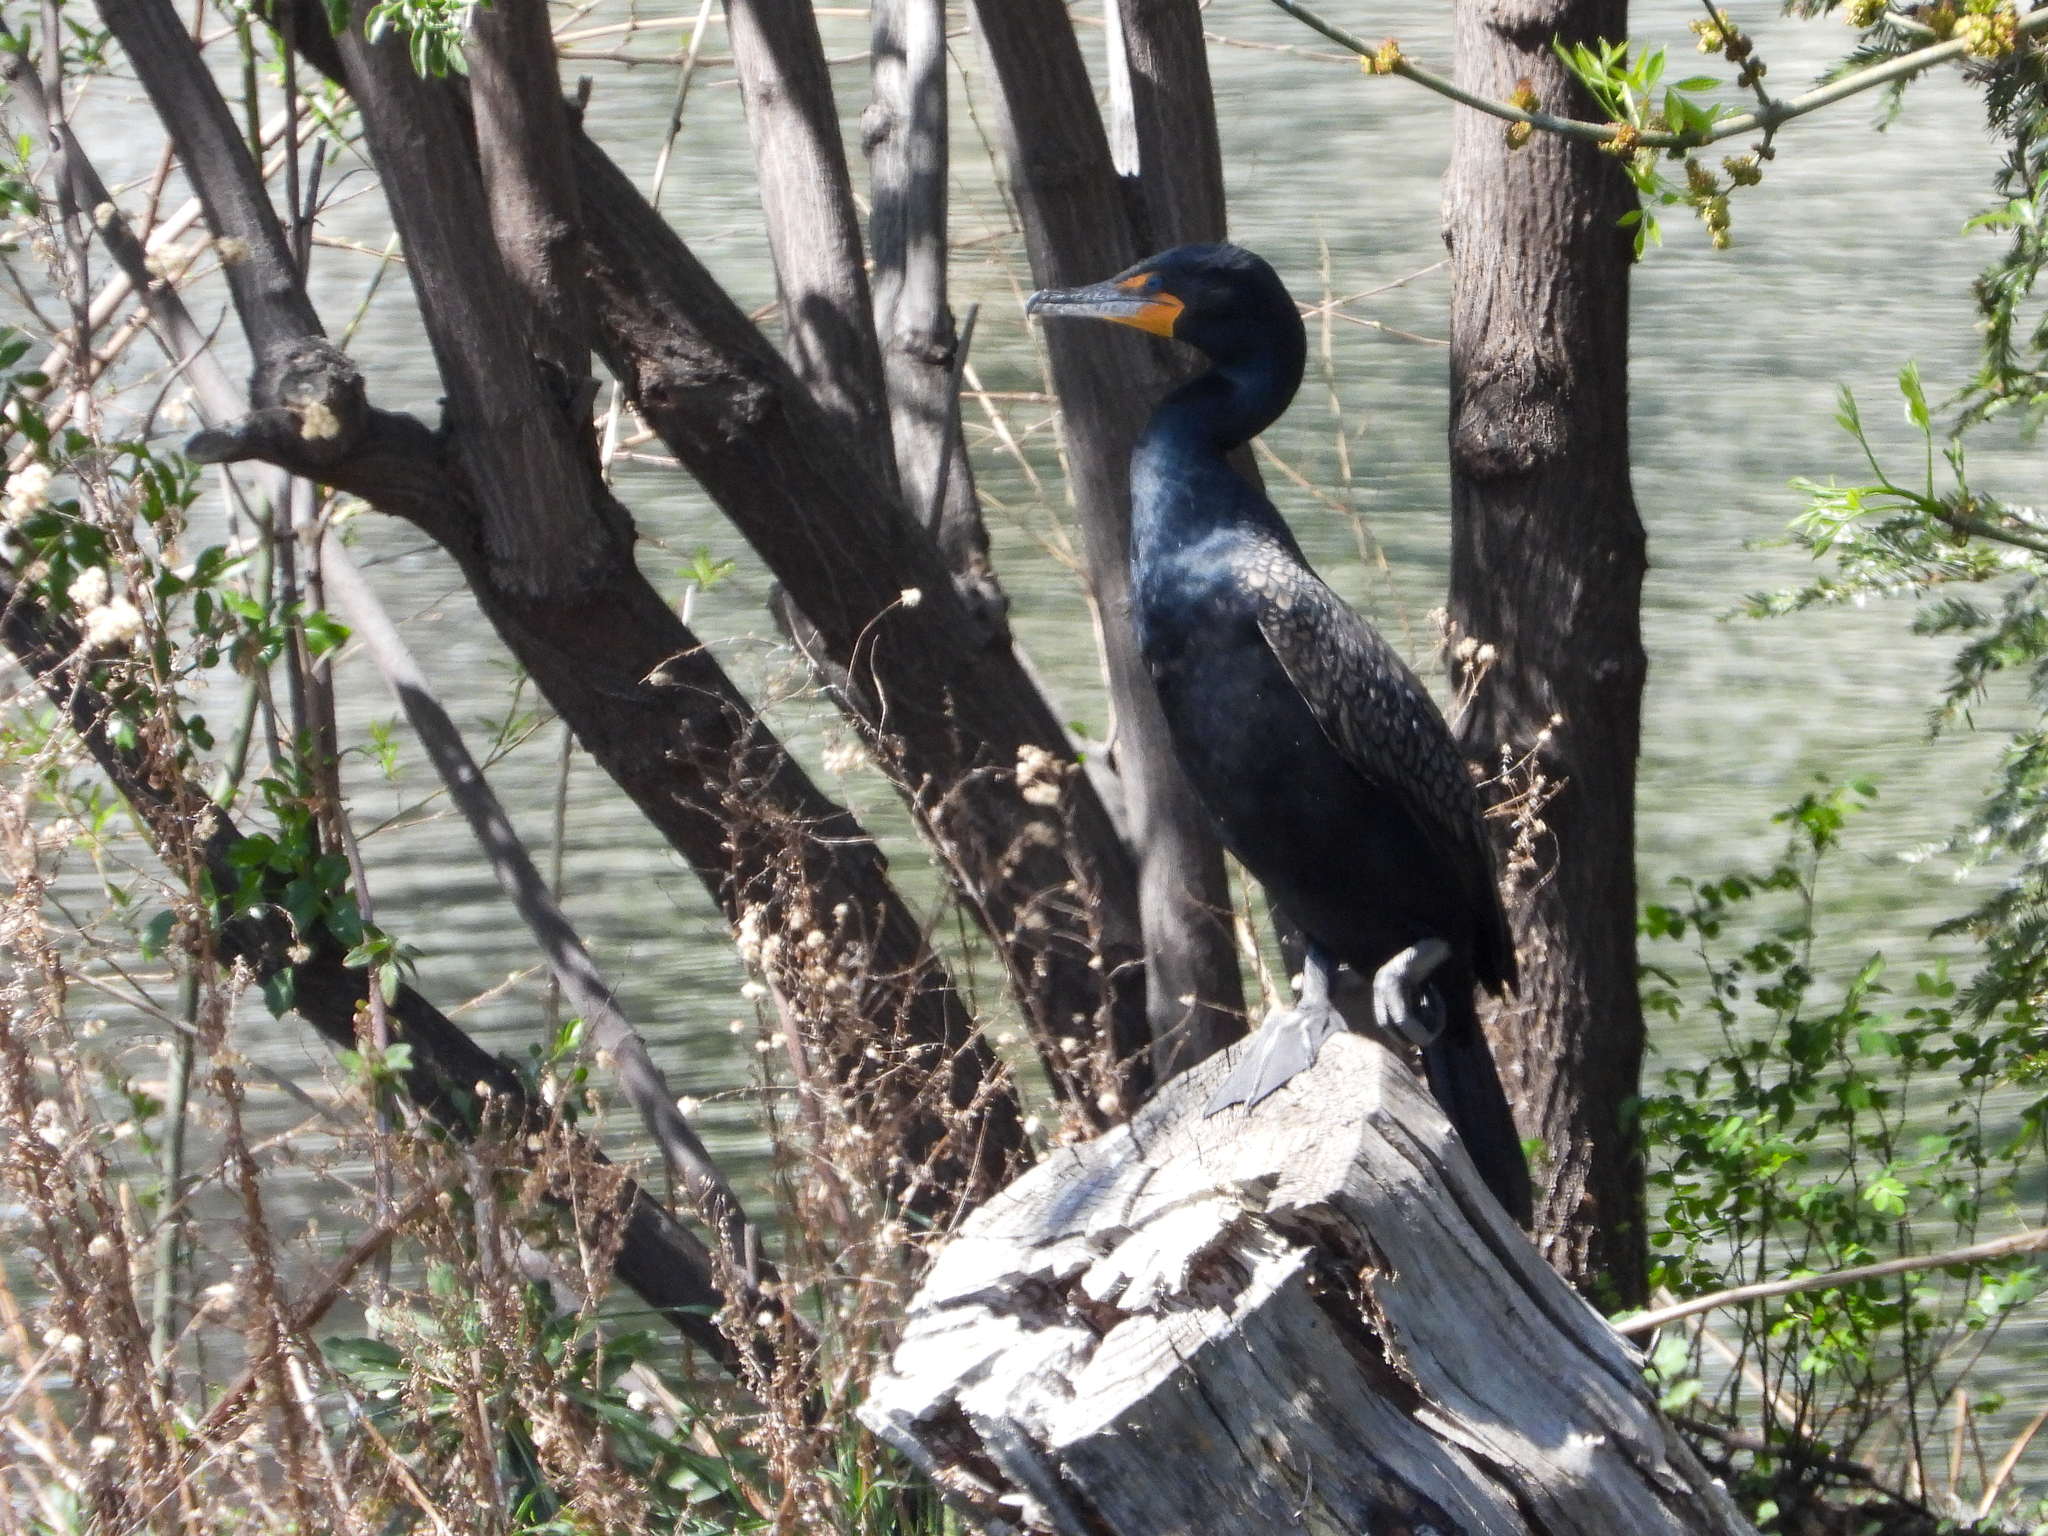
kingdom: Animalia
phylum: Chordata
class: Aves
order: Suliformes
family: Phalacrocoracidae
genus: Phalacrocorax
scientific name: Phalacrocorax auritus
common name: Double-crested cormorant
